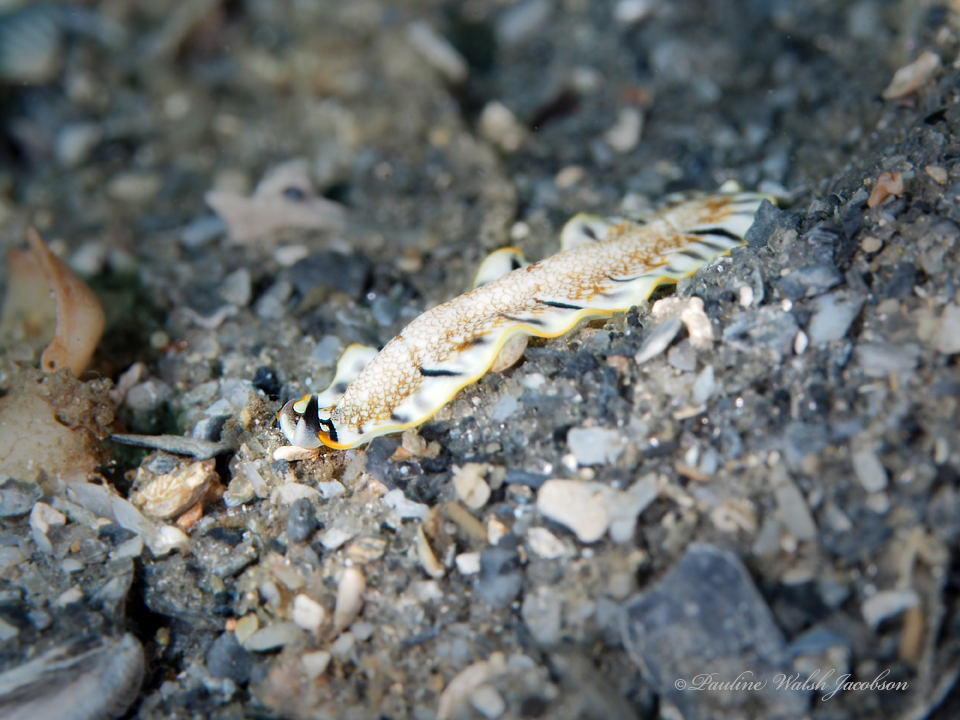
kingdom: Animalia
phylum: Platyhelminthes
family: Euryleptidae
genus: Prostheceraeus
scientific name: Prostheceraeus floridanus
